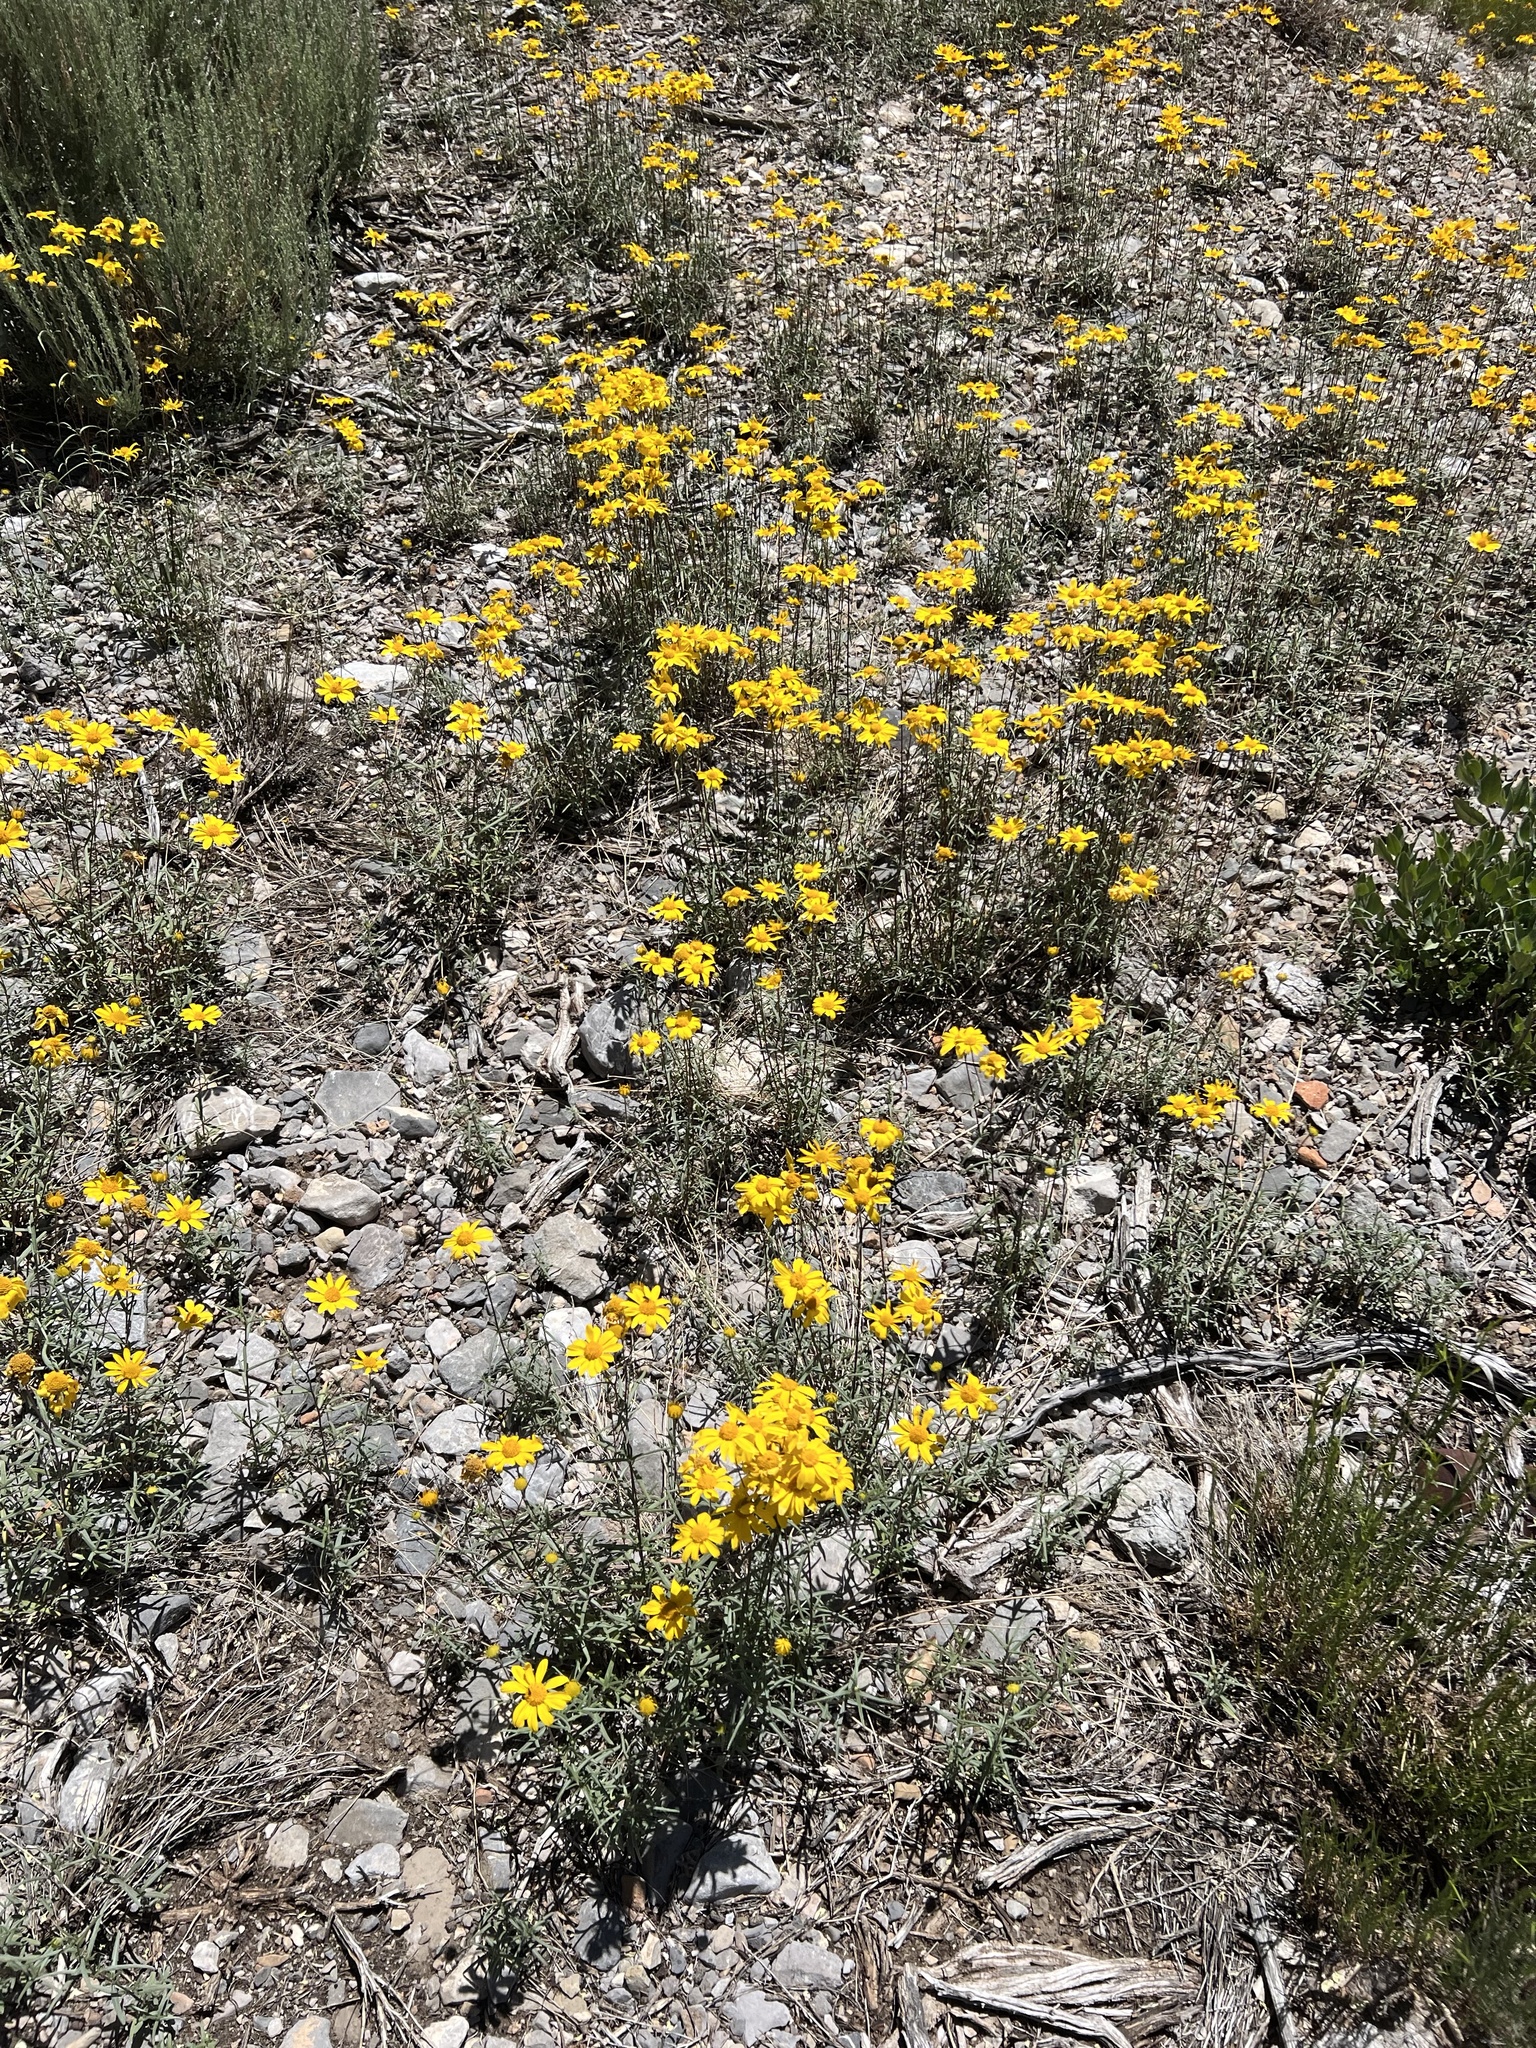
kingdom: Plantae
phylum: Tracheophyta
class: Magnoliopsida
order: Asterales
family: Asteraceae
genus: Heliomeris
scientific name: Heliomeris multiflora
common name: Showy goldeneye
